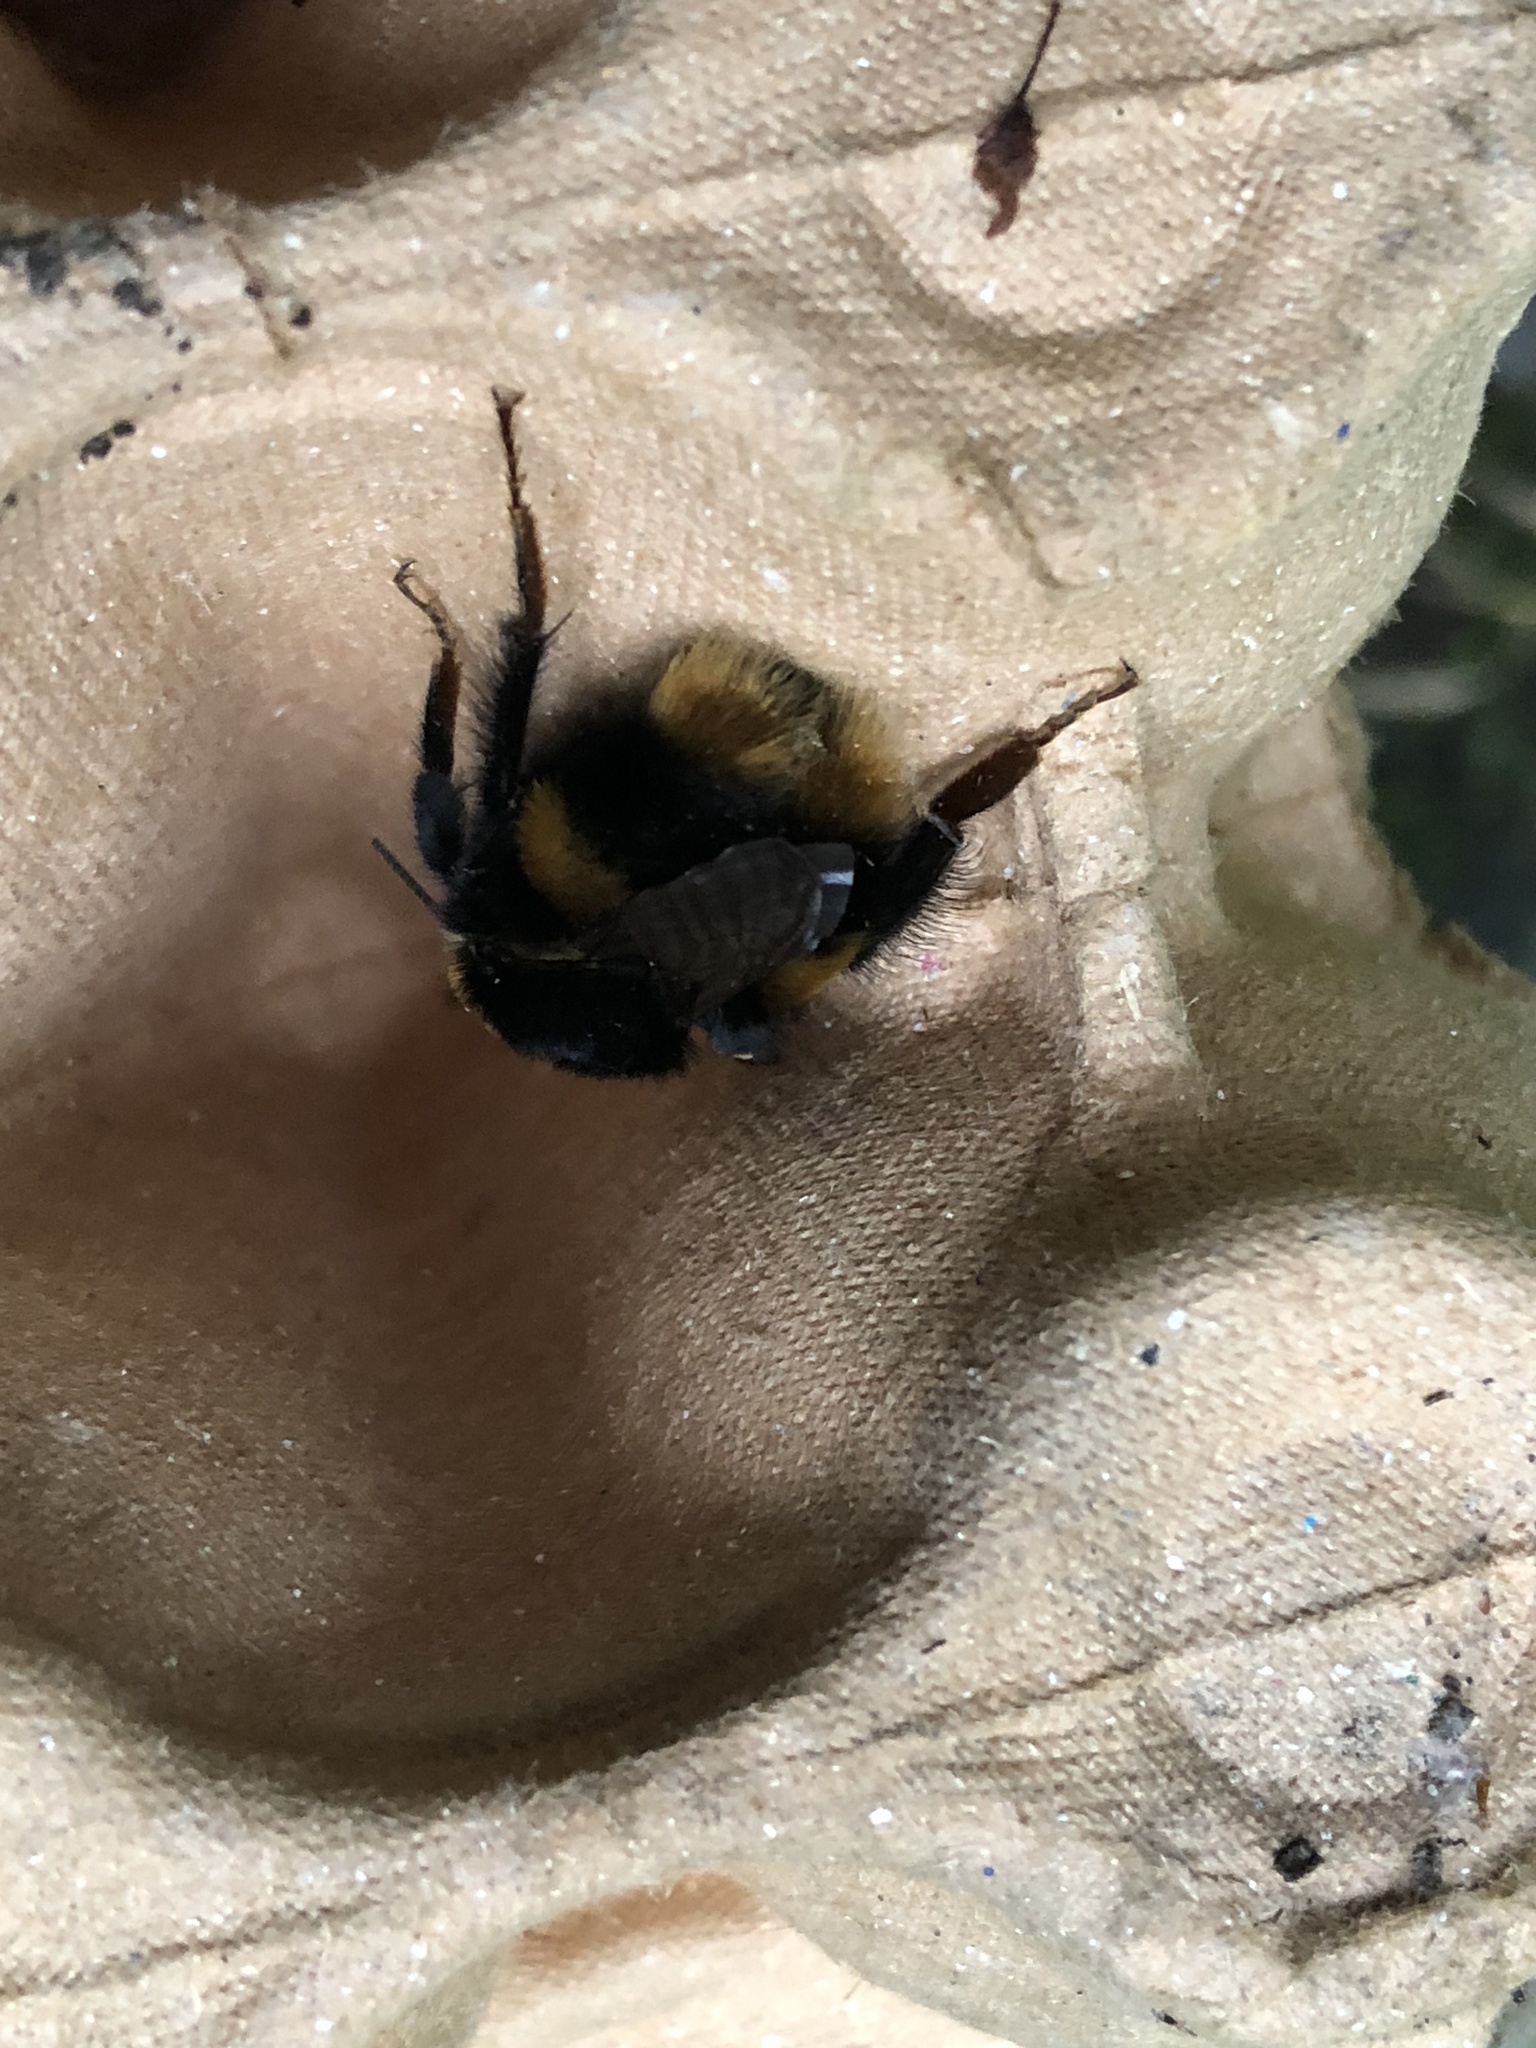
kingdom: Animalia
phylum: Arthropoda
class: Insecta
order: Hymenoptera
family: Apidae
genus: Bombus
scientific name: Bombus terrestris
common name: Buff-tailed bumblebee
